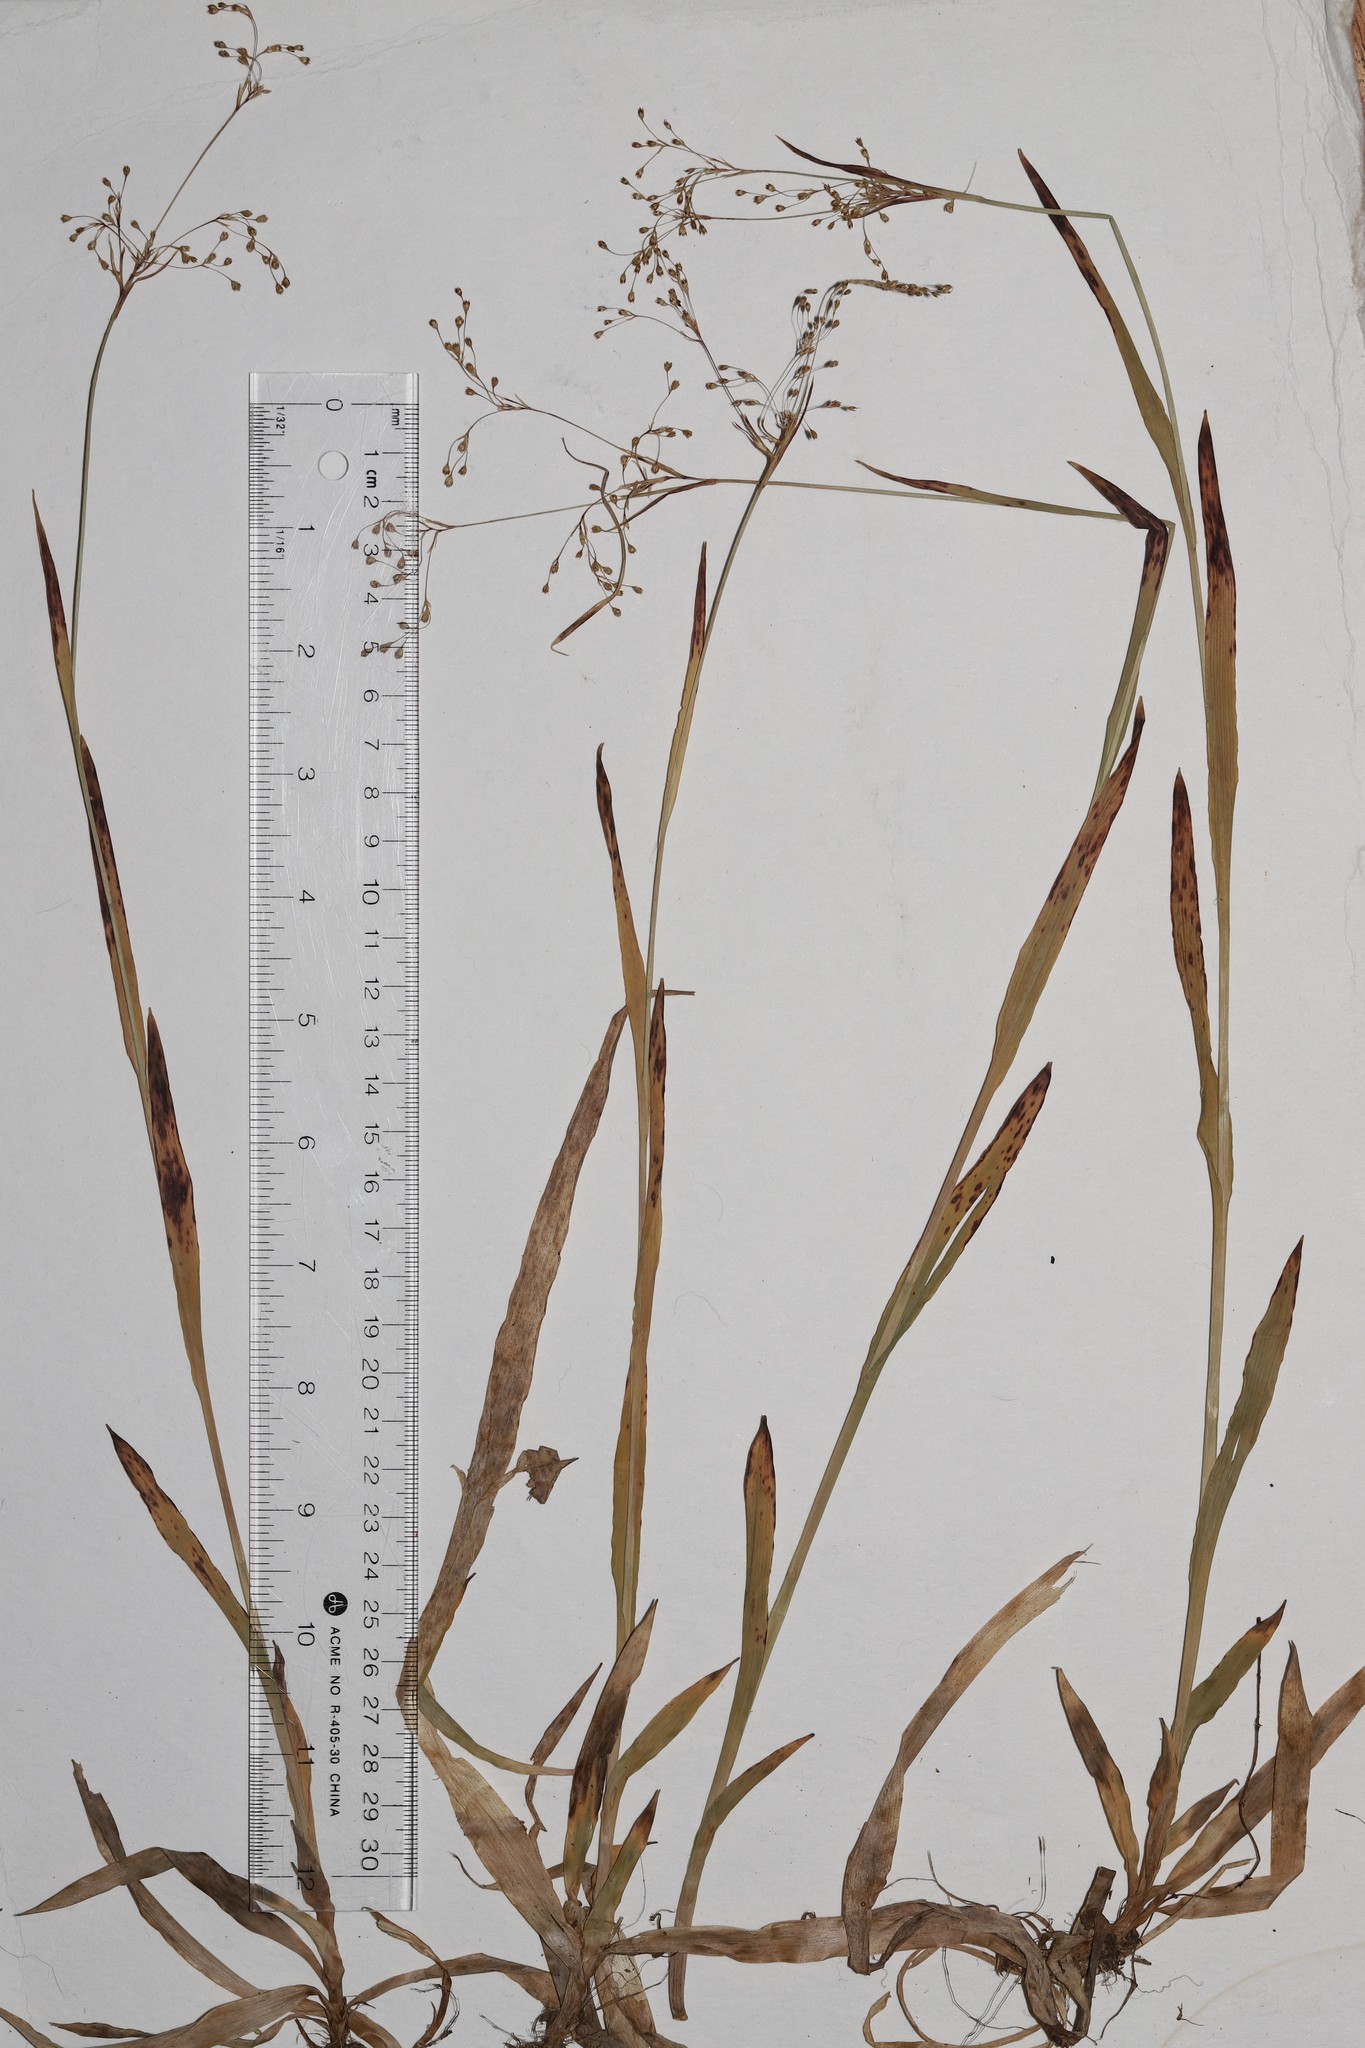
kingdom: Plantae
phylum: Tracheophyta
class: Liliopsida
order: Poales
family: Juncaceae
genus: Luzula
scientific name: Luzula parviflora
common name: Millet woodrush
